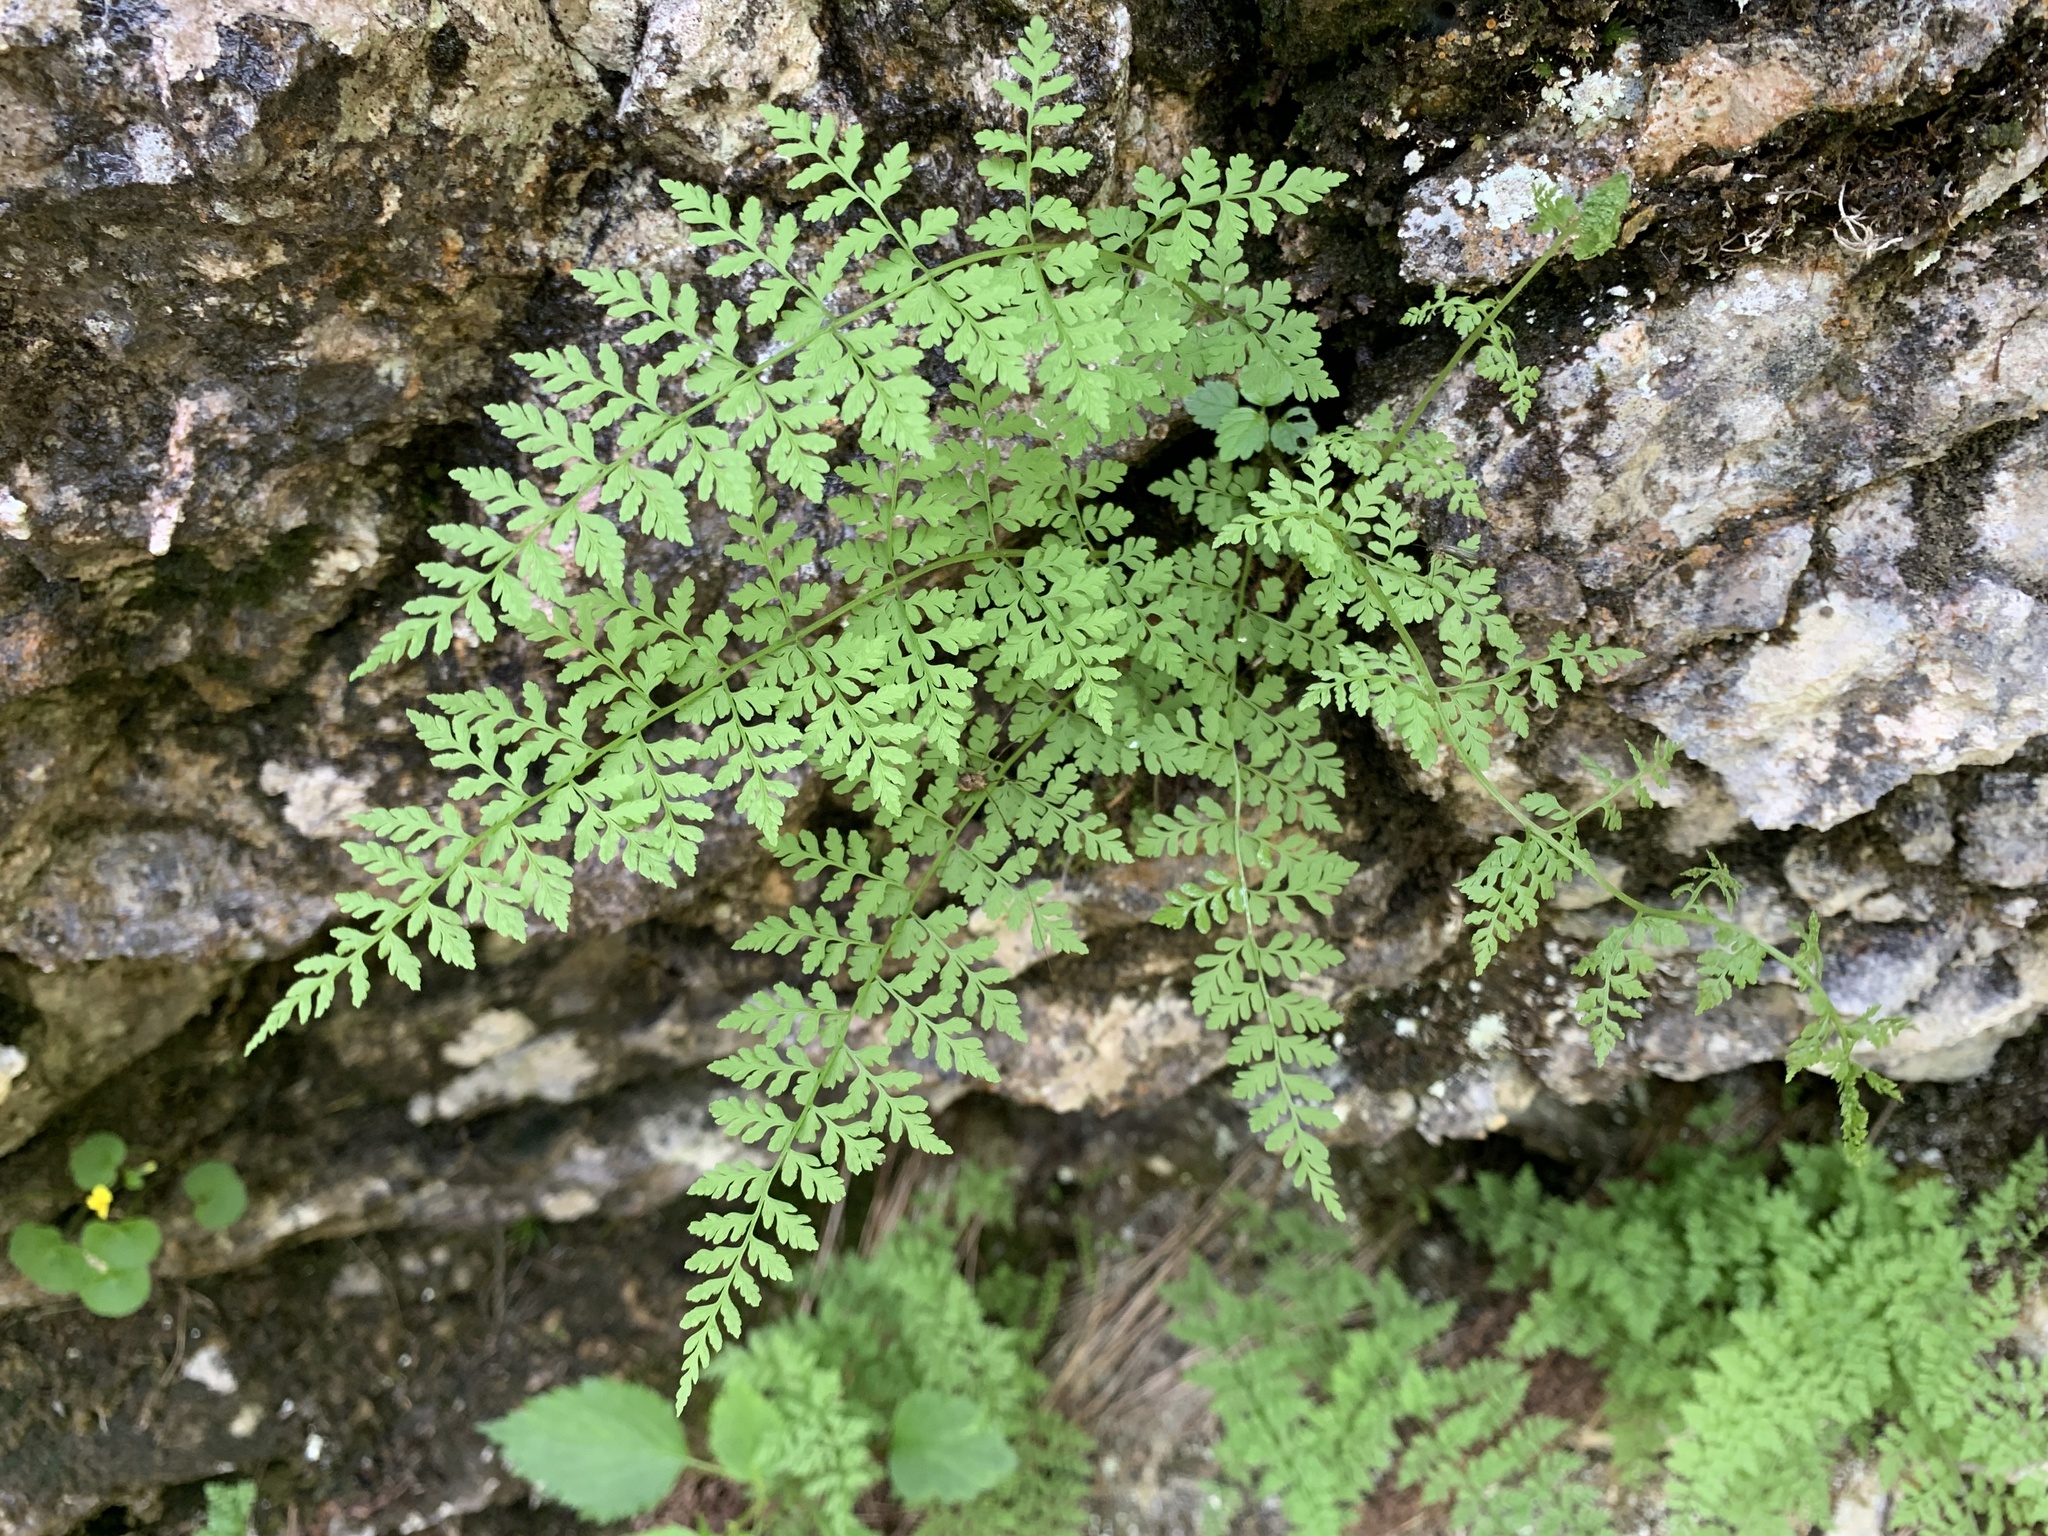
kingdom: Plantae
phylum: Tracheophyta
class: Polypodiopsida
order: Polypodiales
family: Cystopteridaceae
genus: Cystopteris
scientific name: Cystopteris fragilis
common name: Brittle bladder fern
